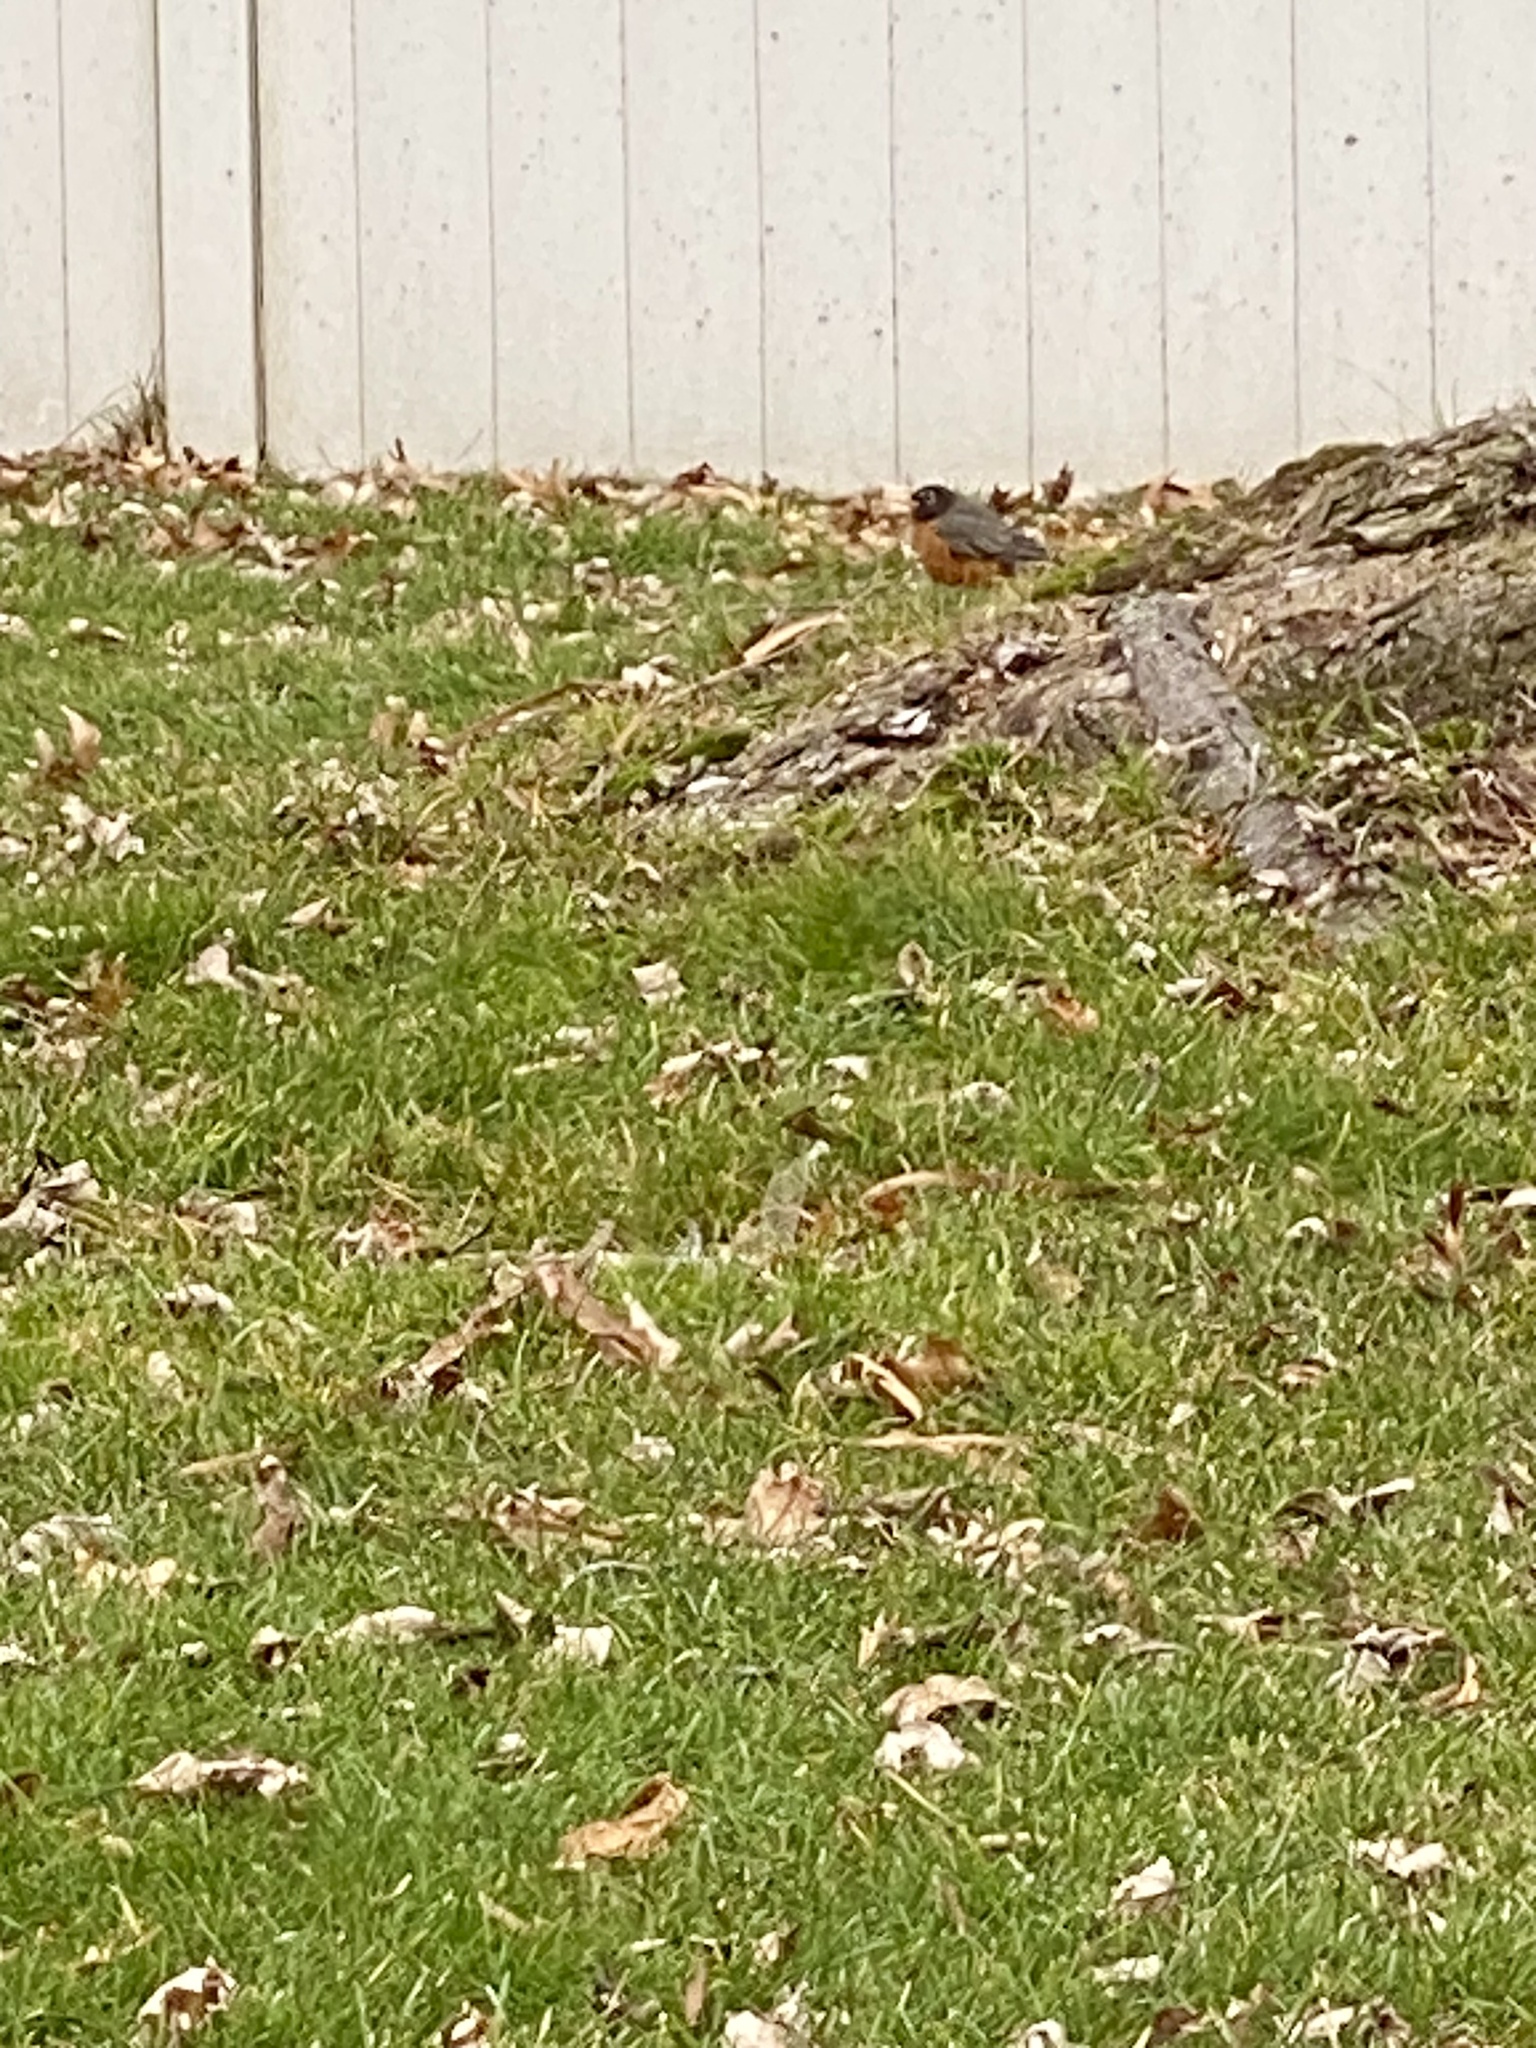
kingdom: Animalia
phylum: Chordata
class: Aves
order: Passeriformes
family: Turdidae
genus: Turdus
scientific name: Turdus migratorius
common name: American robin
